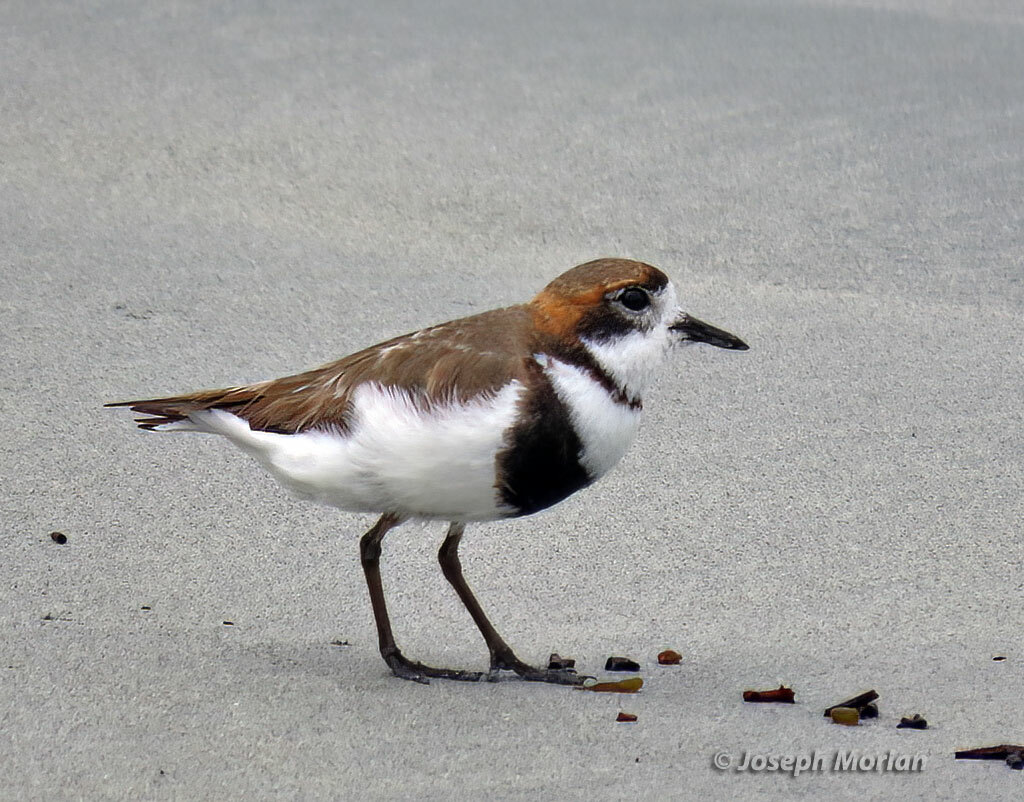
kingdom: Animalia
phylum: Chordata
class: Aves
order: Charadriiformes
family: Charadriidae
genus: Anarhynchus
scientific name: Anarhynchus
